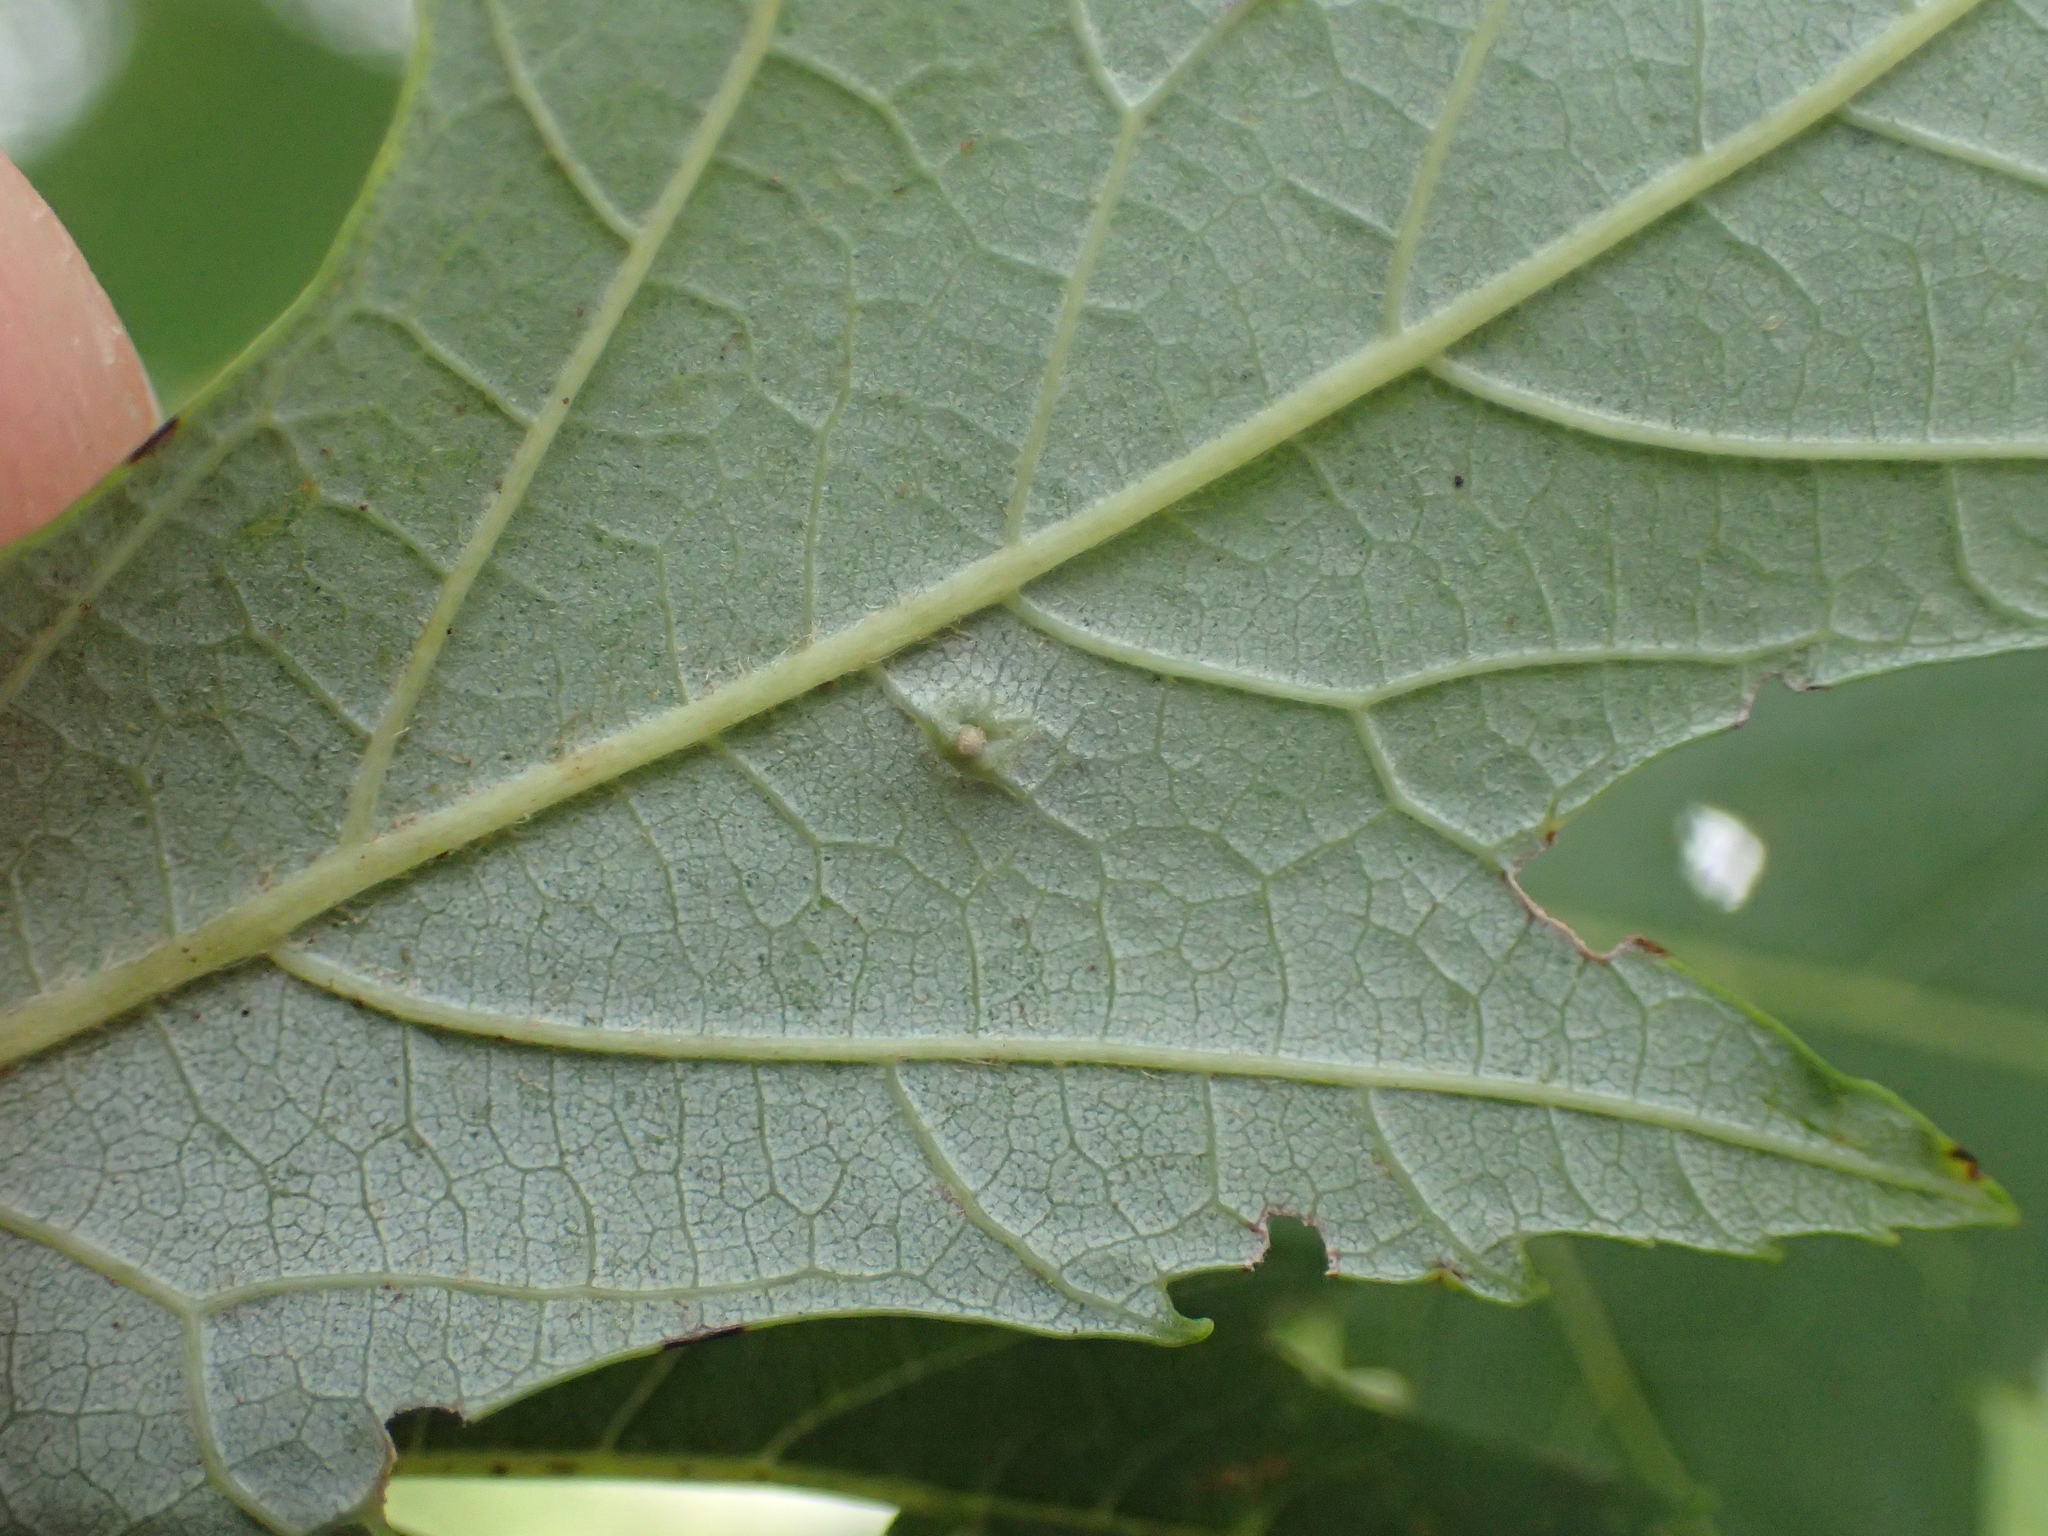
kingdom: Animalia
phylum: Arthropoda
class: Arachnida
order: Trombidiformes
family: Eriophyidae
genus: Vasates
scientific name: Vasates quadripedes
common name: Maple bladder gall mite
